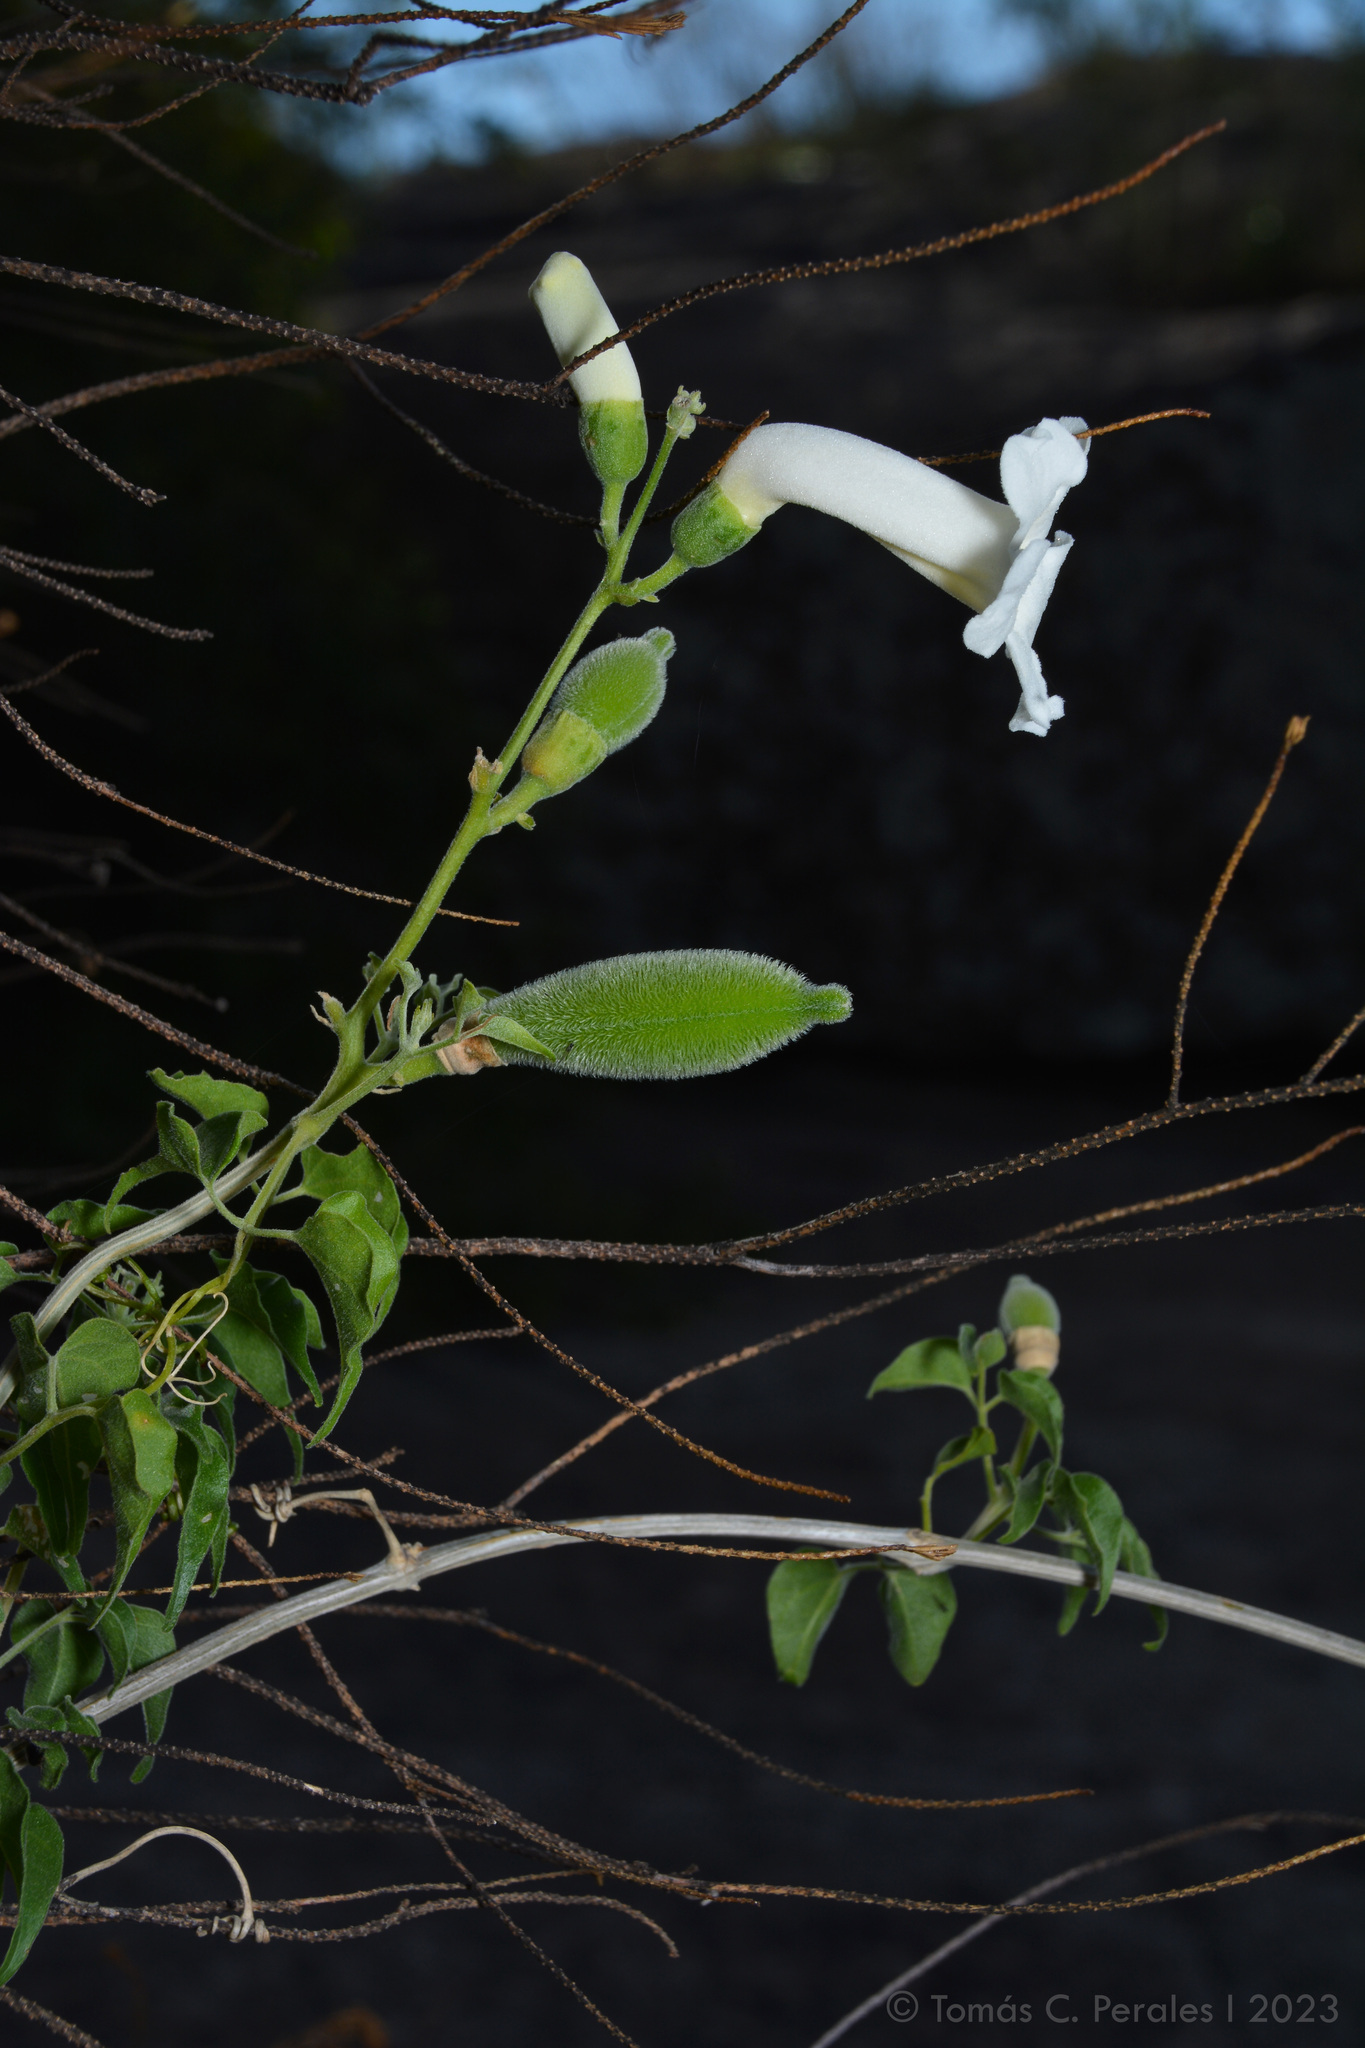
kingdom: Plantae
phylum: Tracheophyta
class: Magnoliopsida
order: Lamiales
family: Bignoniaceae
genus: Amphilophium
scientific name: Amphilophium carolinae
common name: Monkey's-comb
